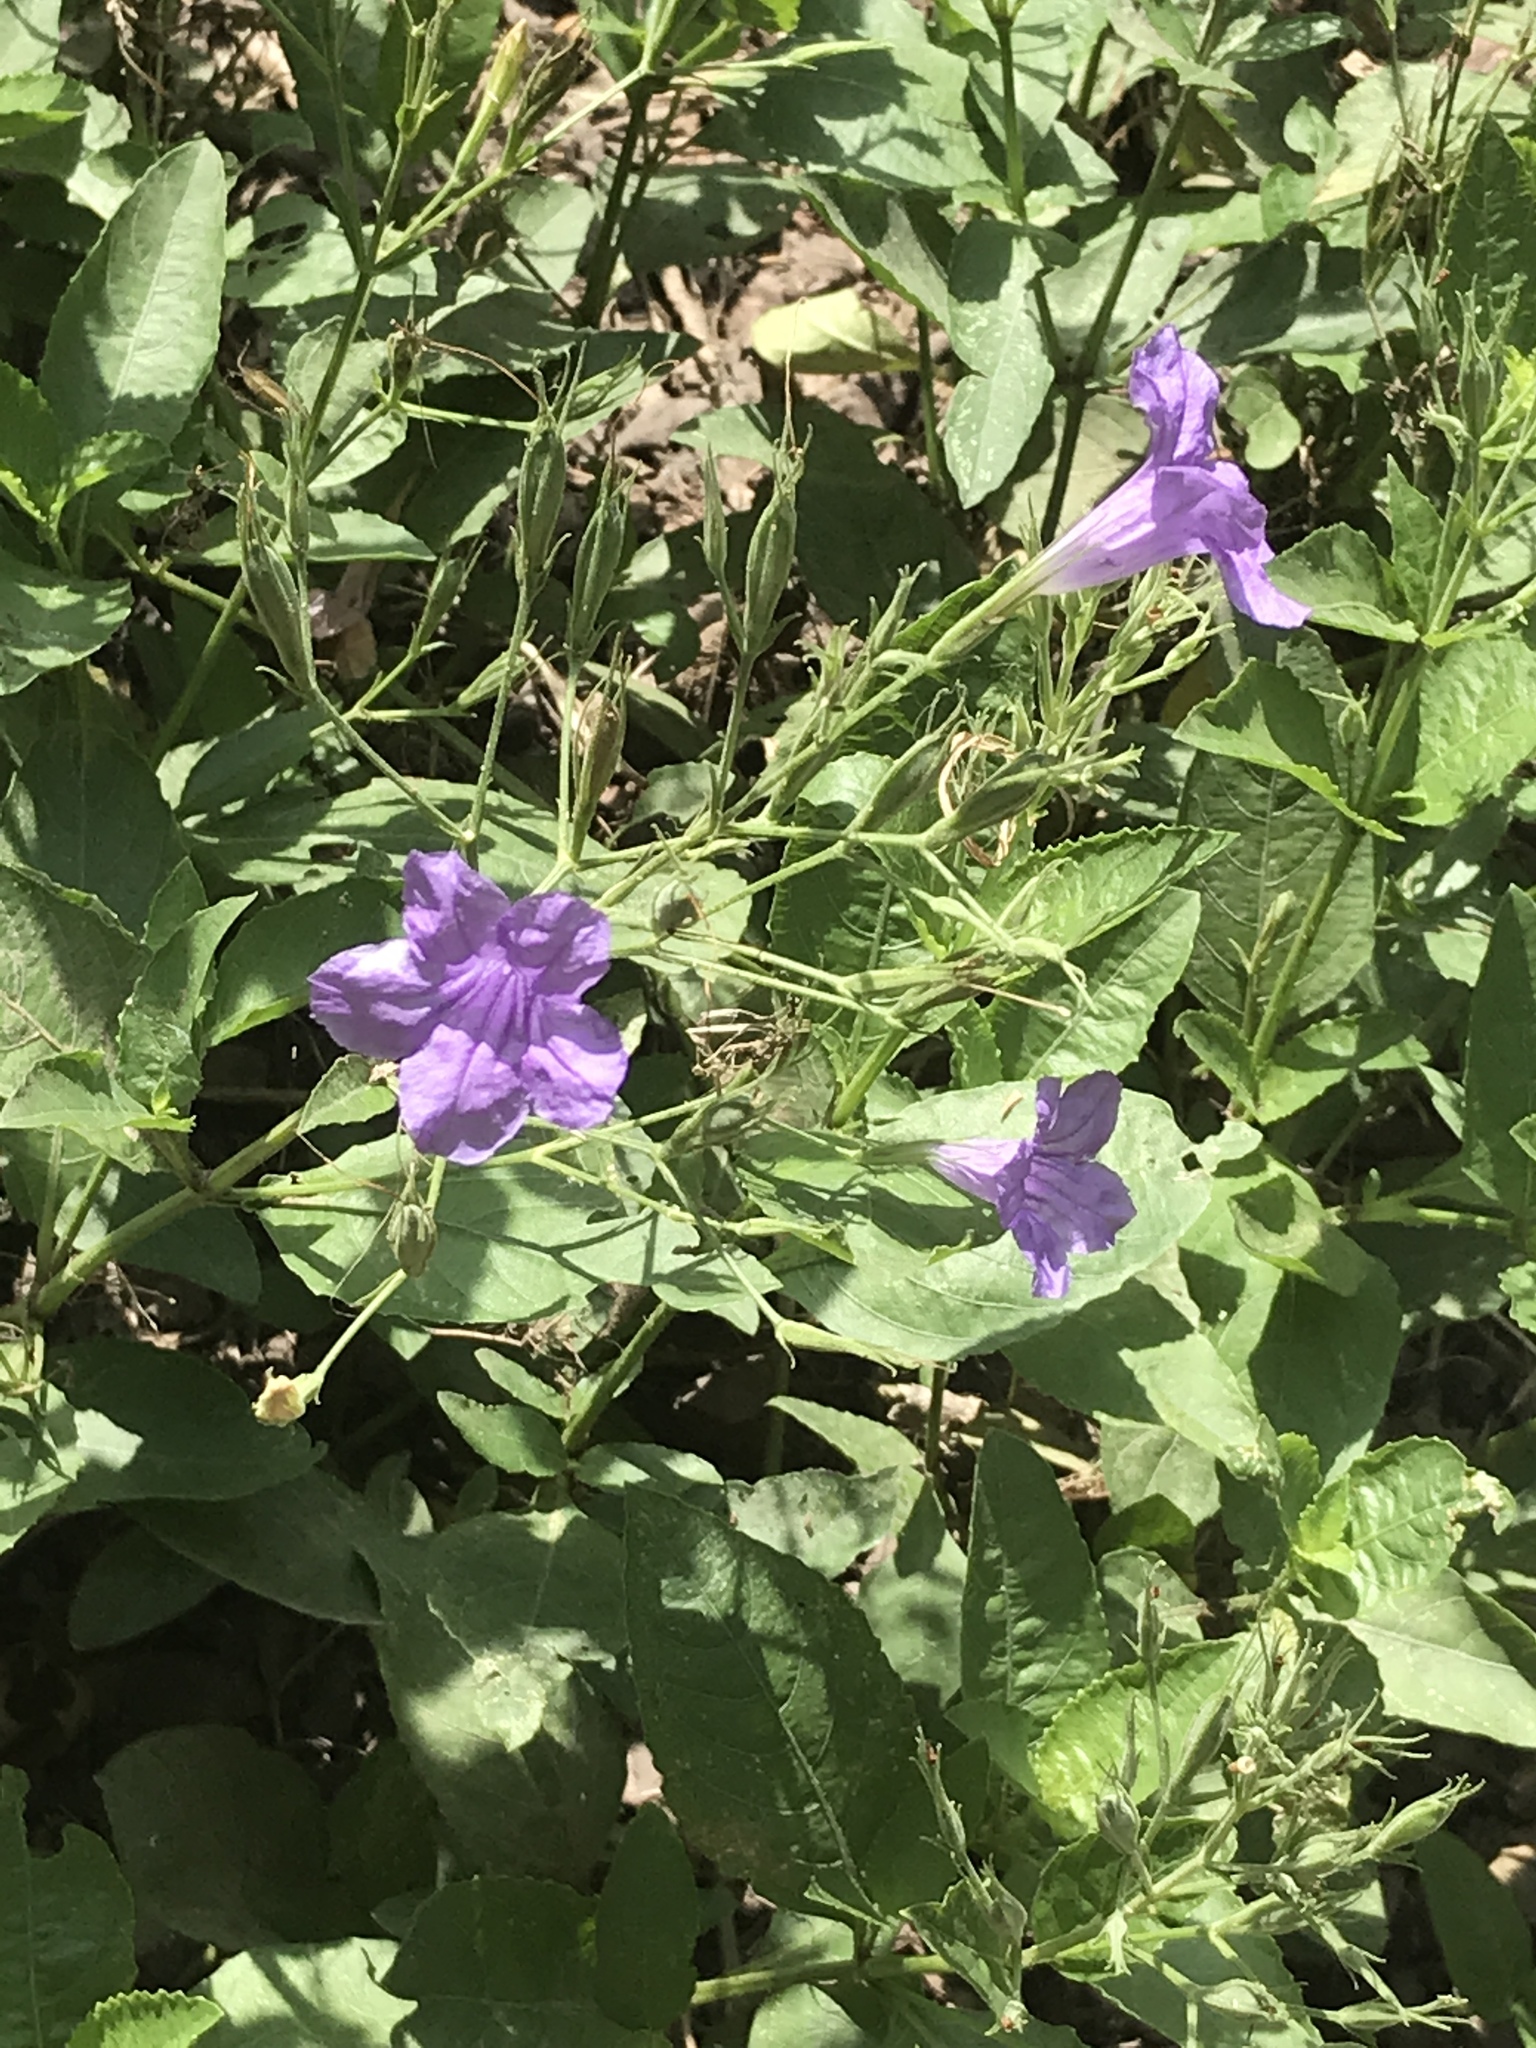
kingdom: Plantae
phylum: Tracheophyta
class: Magnoliopsida
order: Lamiales
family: Acanthaceae
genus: Ruellia
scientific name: Ruellia ciliatiflora
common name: Hairyflower wild petunia
